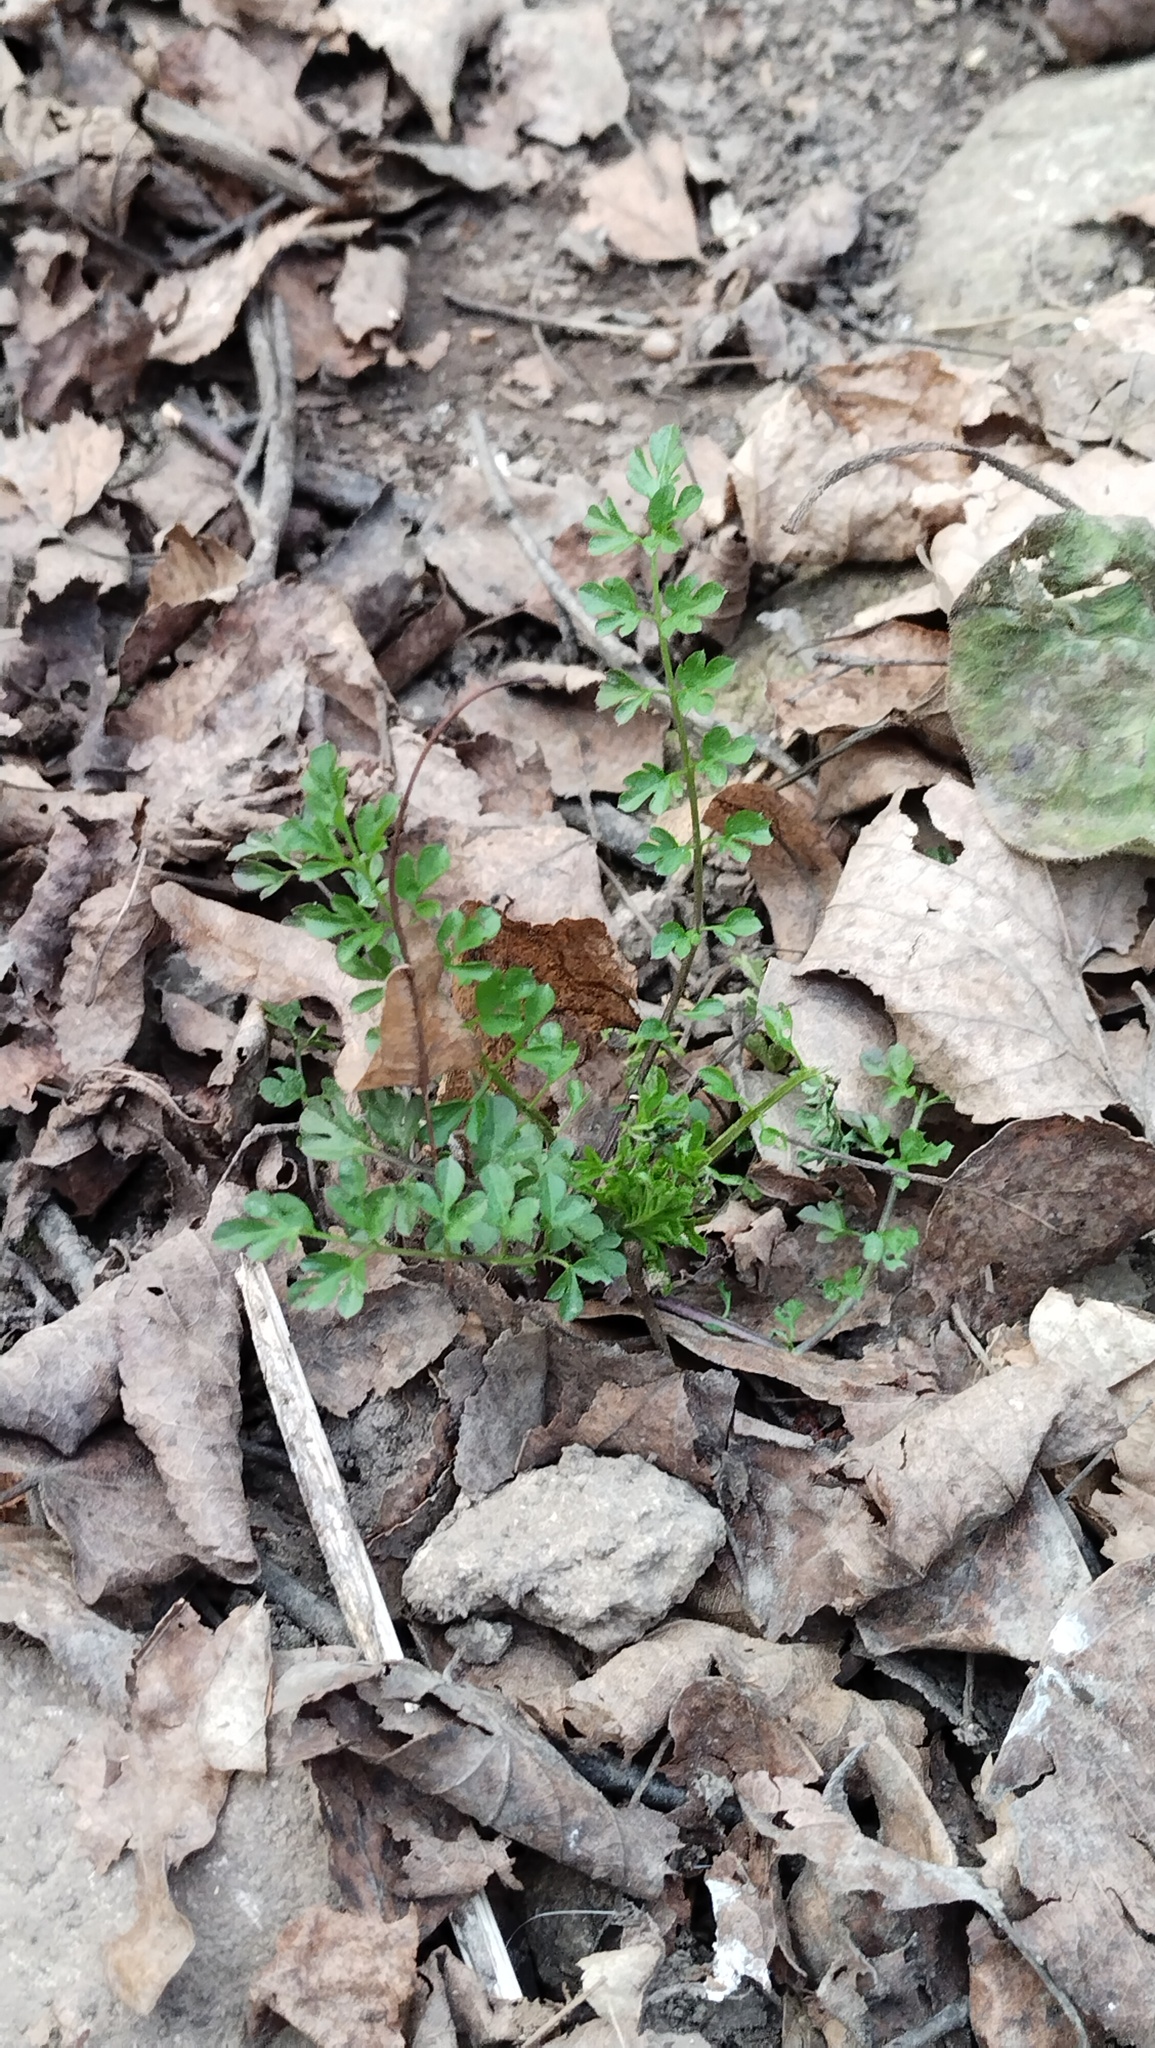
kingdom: Plantae
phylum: Tracheophyta
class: Magnoliopsida
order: Brassicales
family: Brassicaceae
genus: Cardamine
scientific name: Cardamine impatiens
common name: Narrow-leaved bitter-cress
